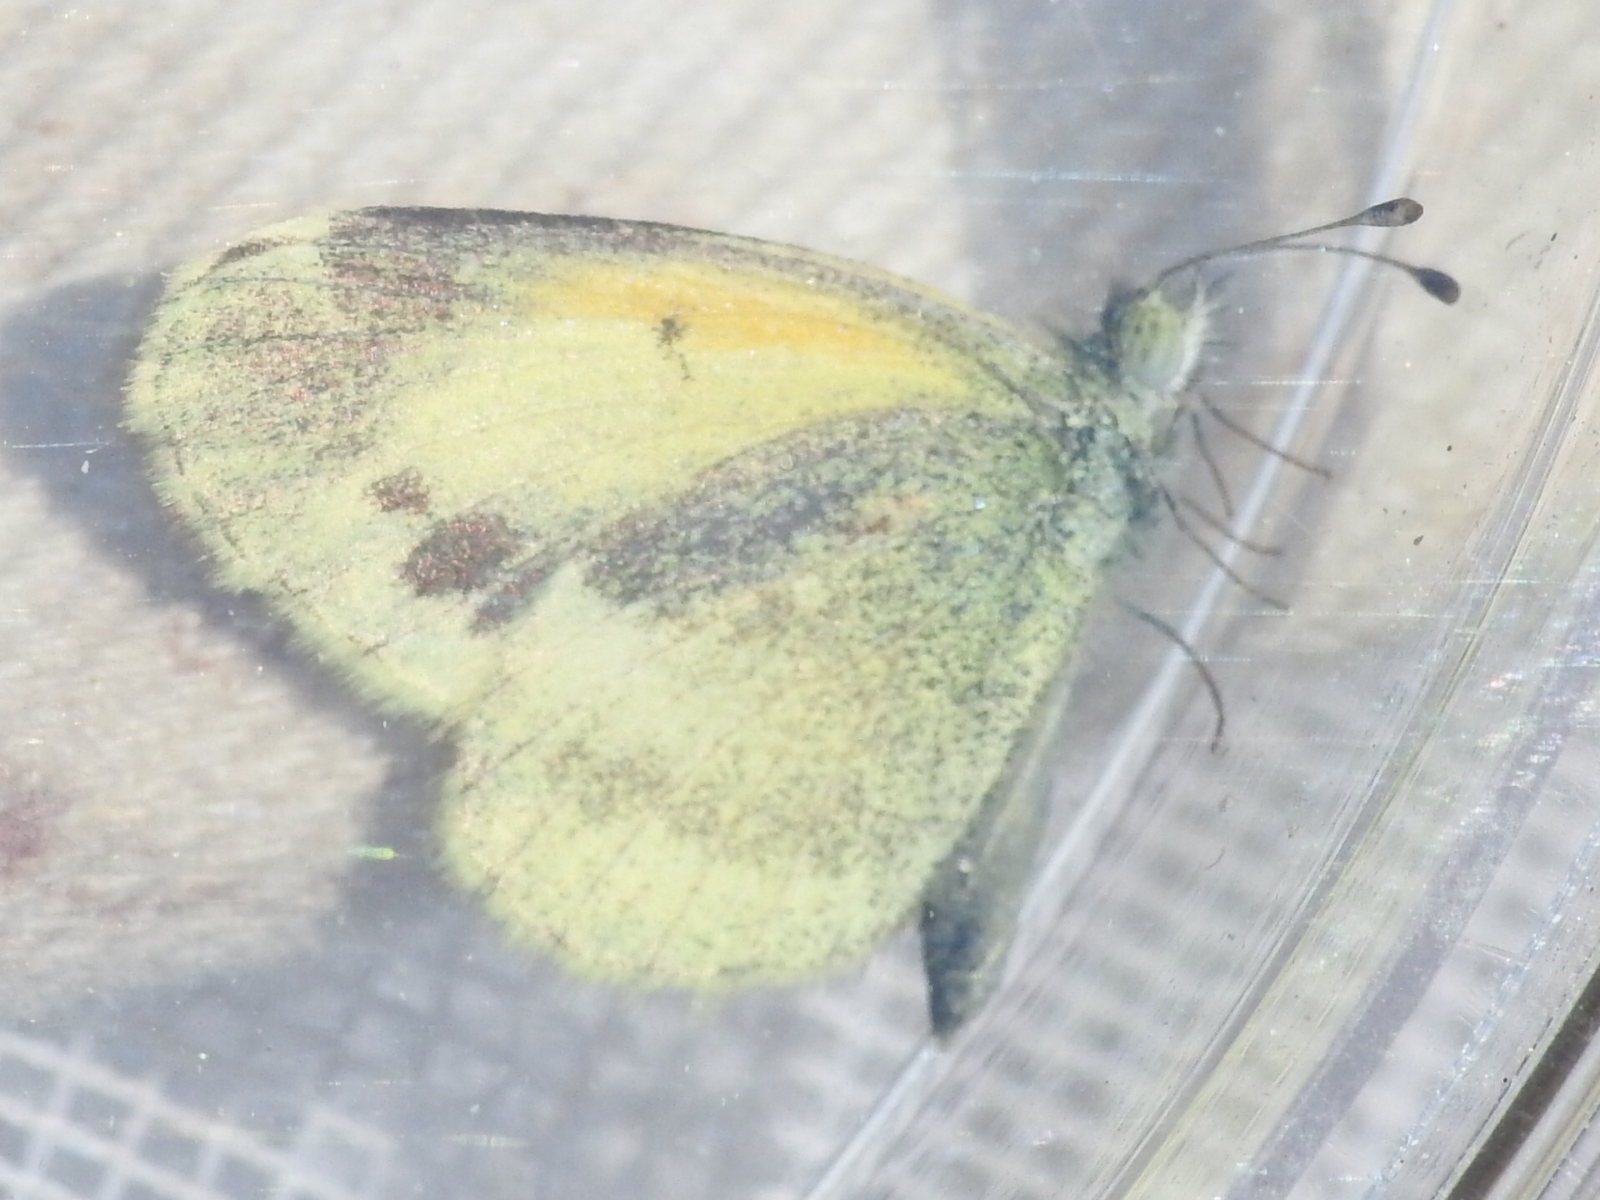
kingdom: Animalia
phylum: Arthropoda
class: Insecta
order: Lepidoptera
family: Pieridae
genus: Nathalis
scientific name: Nathalis iole
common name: Dainty sulphur
